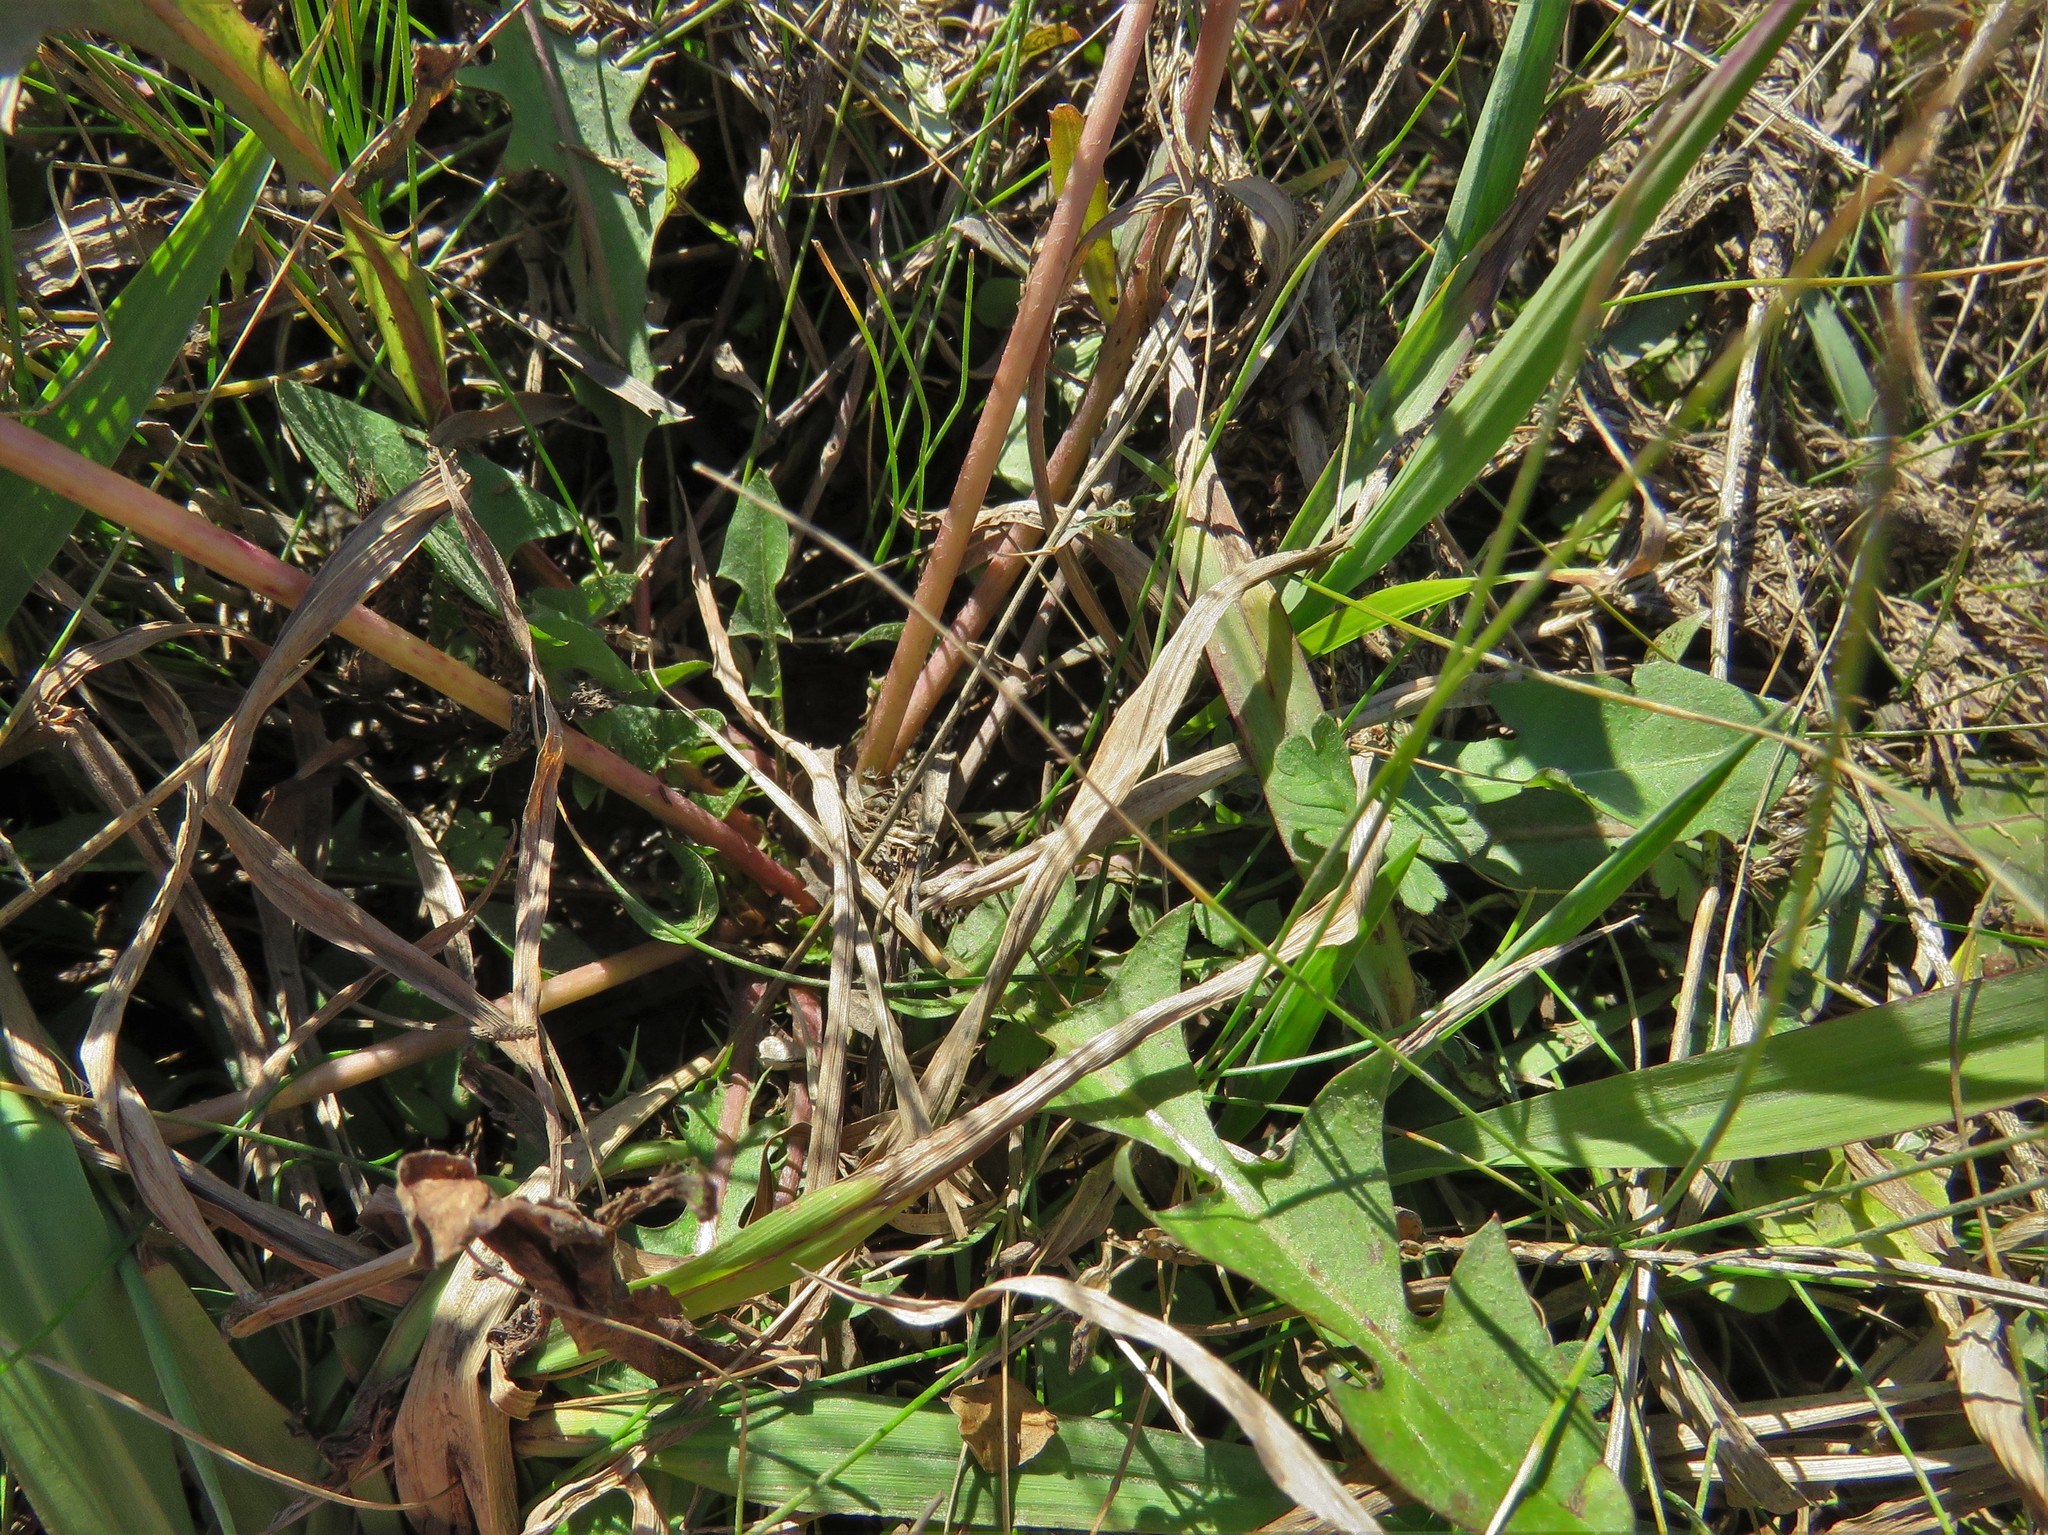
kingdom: Plantae
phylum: Tracheophyta
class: Magnoliopsida
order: Asterales
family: Asteraceae
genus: Taraxacum
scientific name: Taraxacum erythrospermum
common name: Rock dandelion
